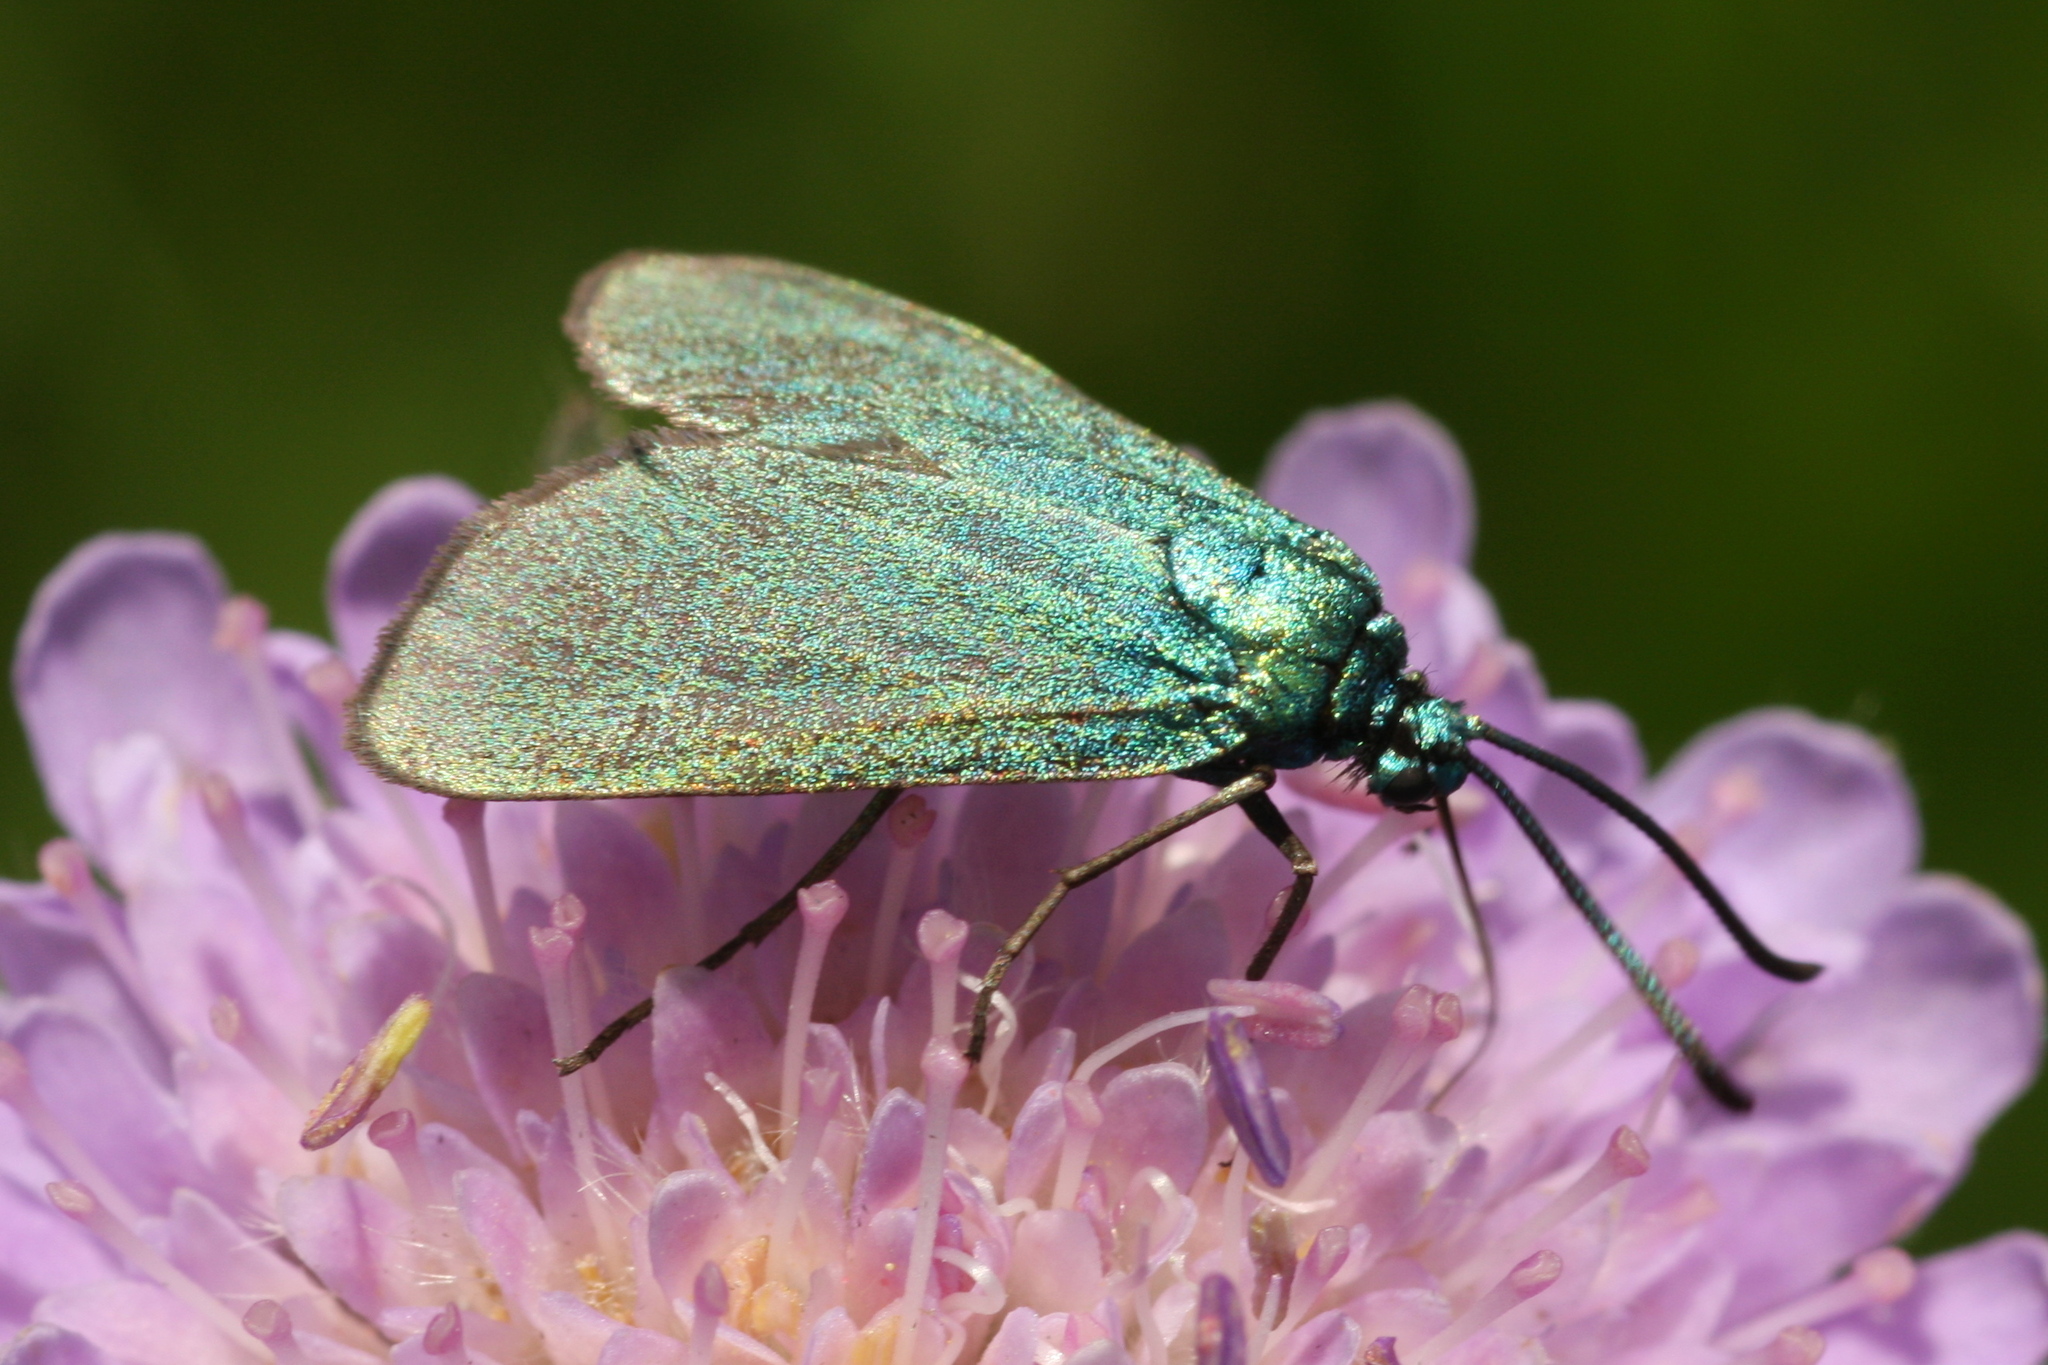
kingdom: Animalia
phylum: Arthropoda
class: Insecta
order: Lepidoptera
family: Zygaenidae
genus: Adscita
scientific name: Adscita statices
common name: Forester
